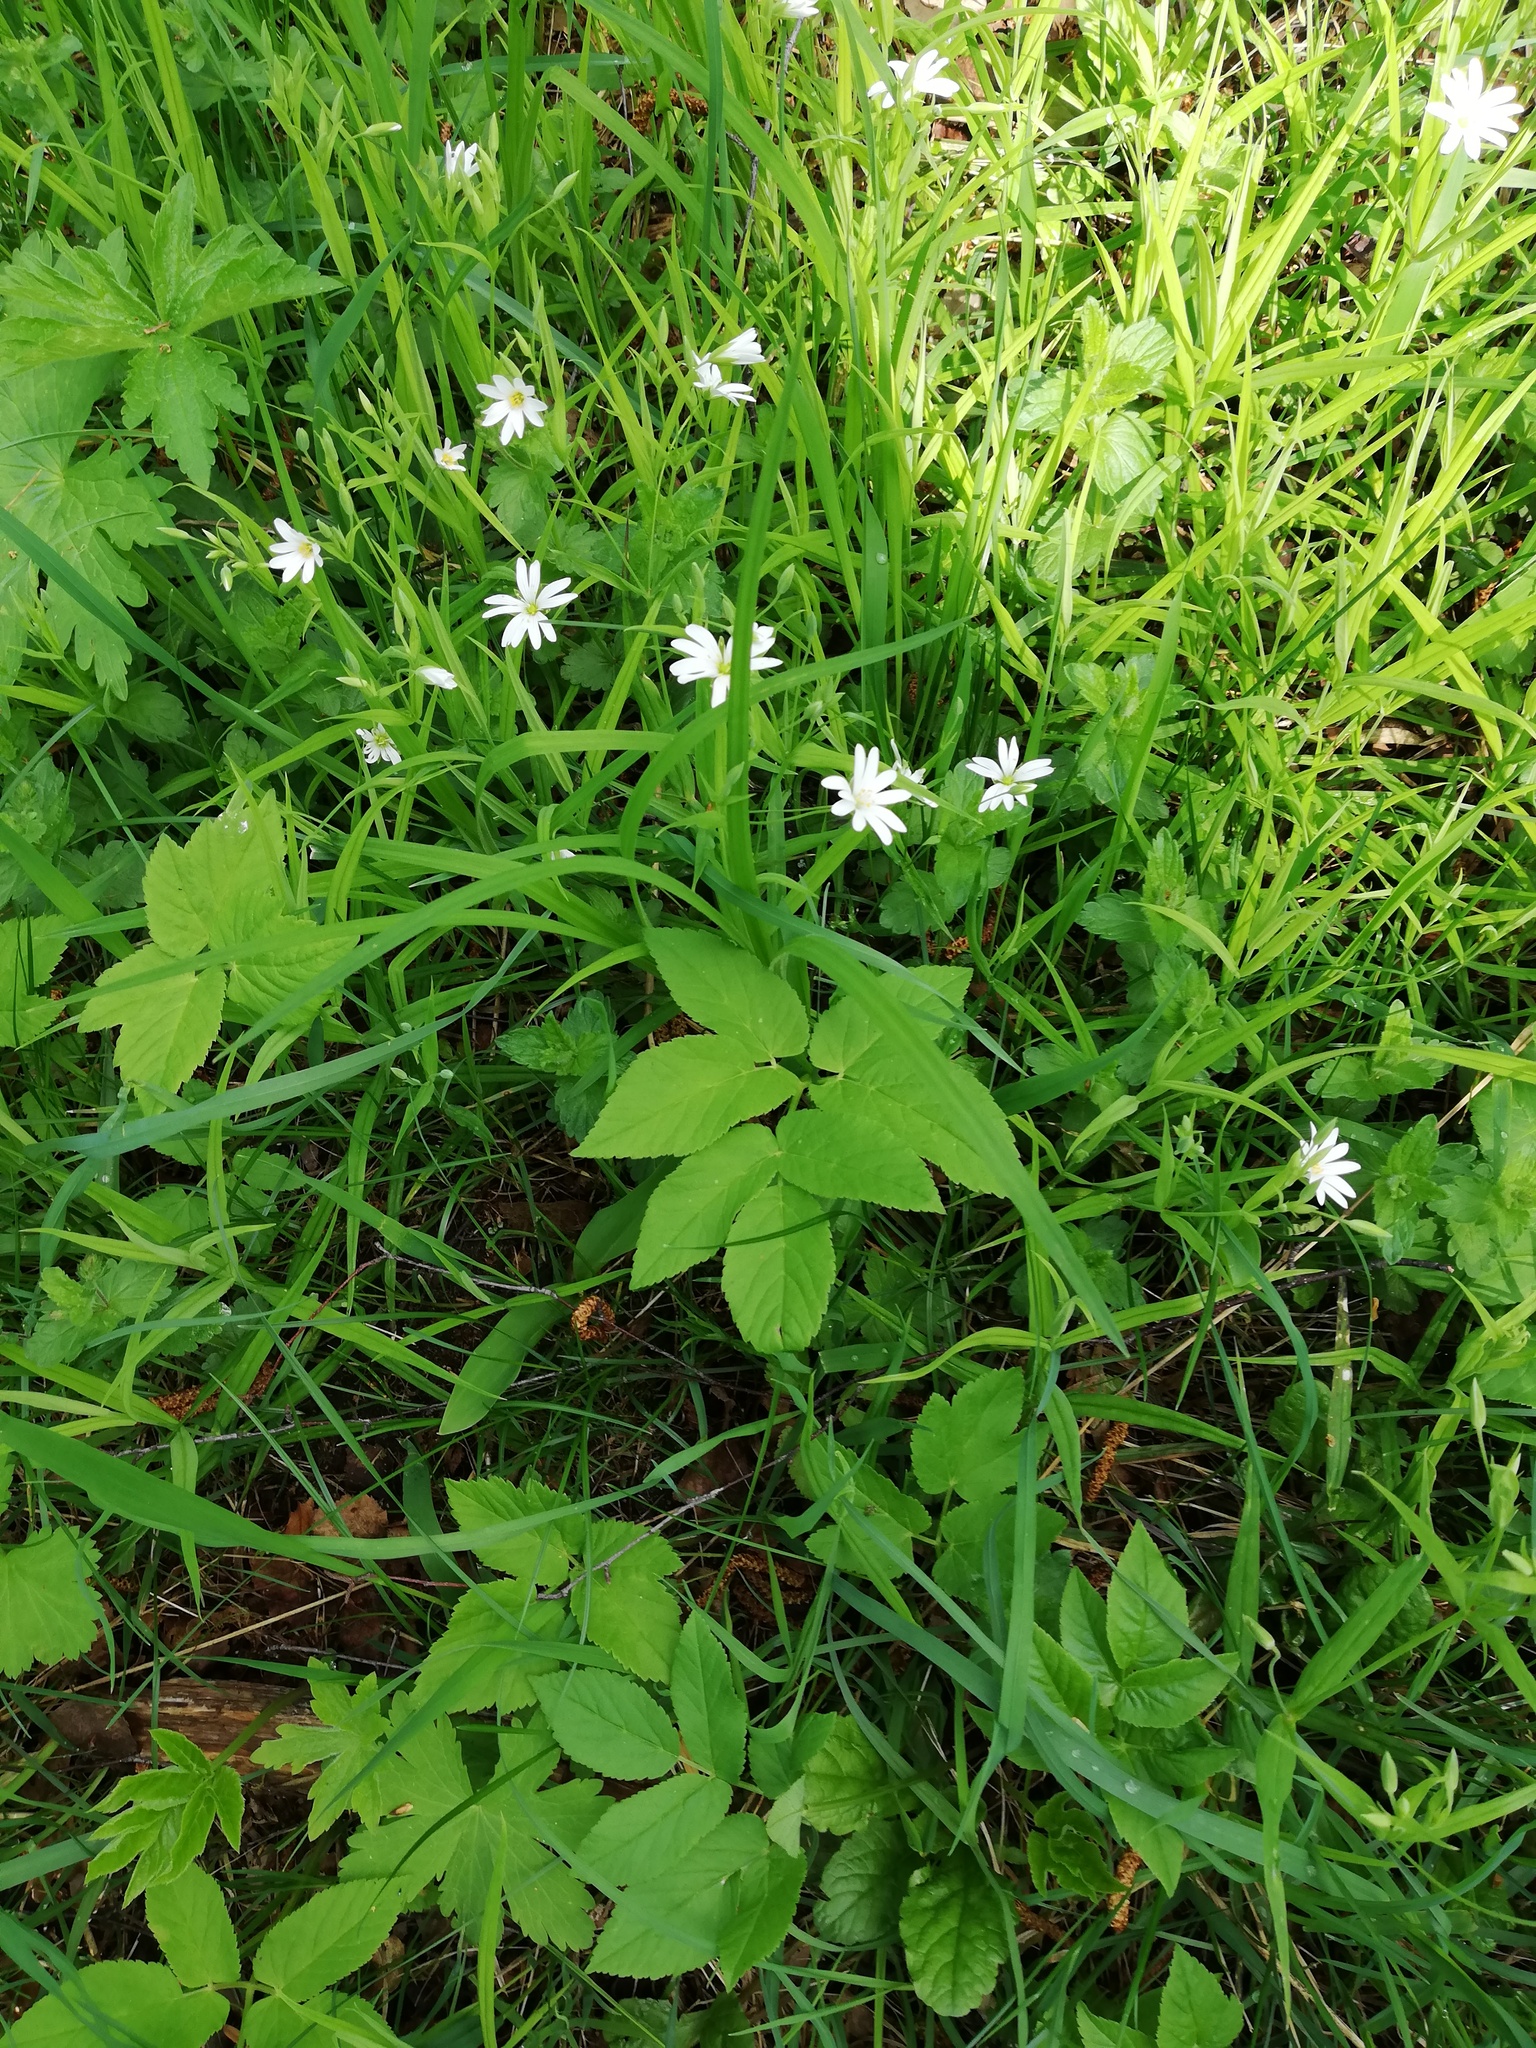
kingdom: Plantae
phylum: Tracheophyta
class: Magnoliopsida
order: Caryophyllales
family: Caryophyllaceae
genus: Rabelera
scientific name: Rabelera holostea
